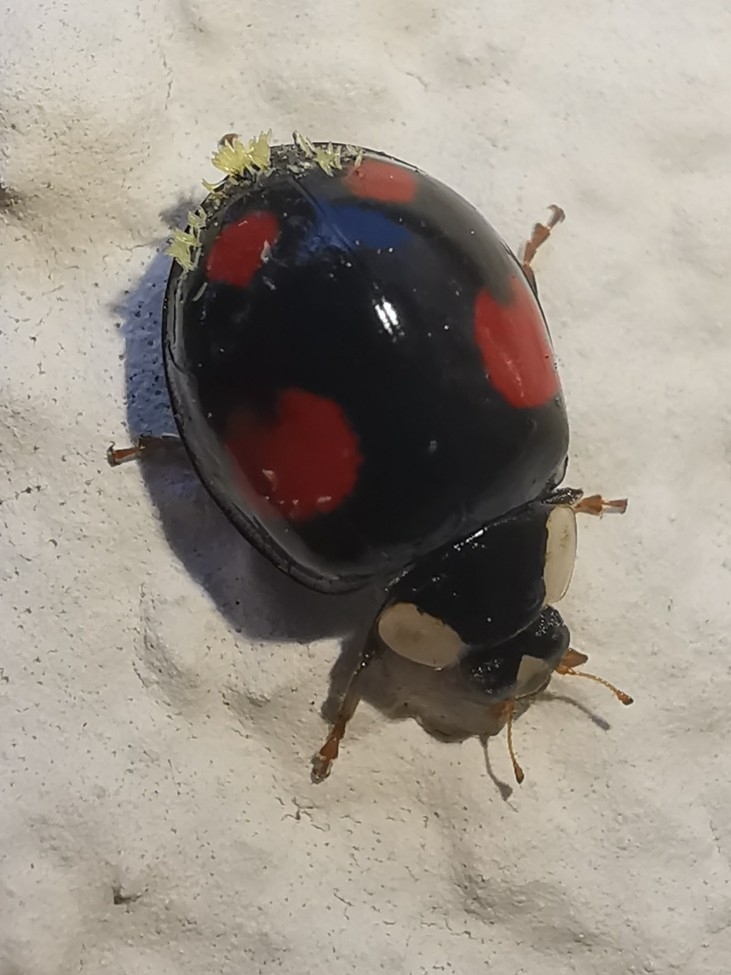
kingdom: Animalia
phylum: Arthropoda
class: Insecta
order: Coleoptera
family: Coccinellidae
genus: Harmonia
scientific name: Harmonia axyridis
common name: Harlequin ladybird
